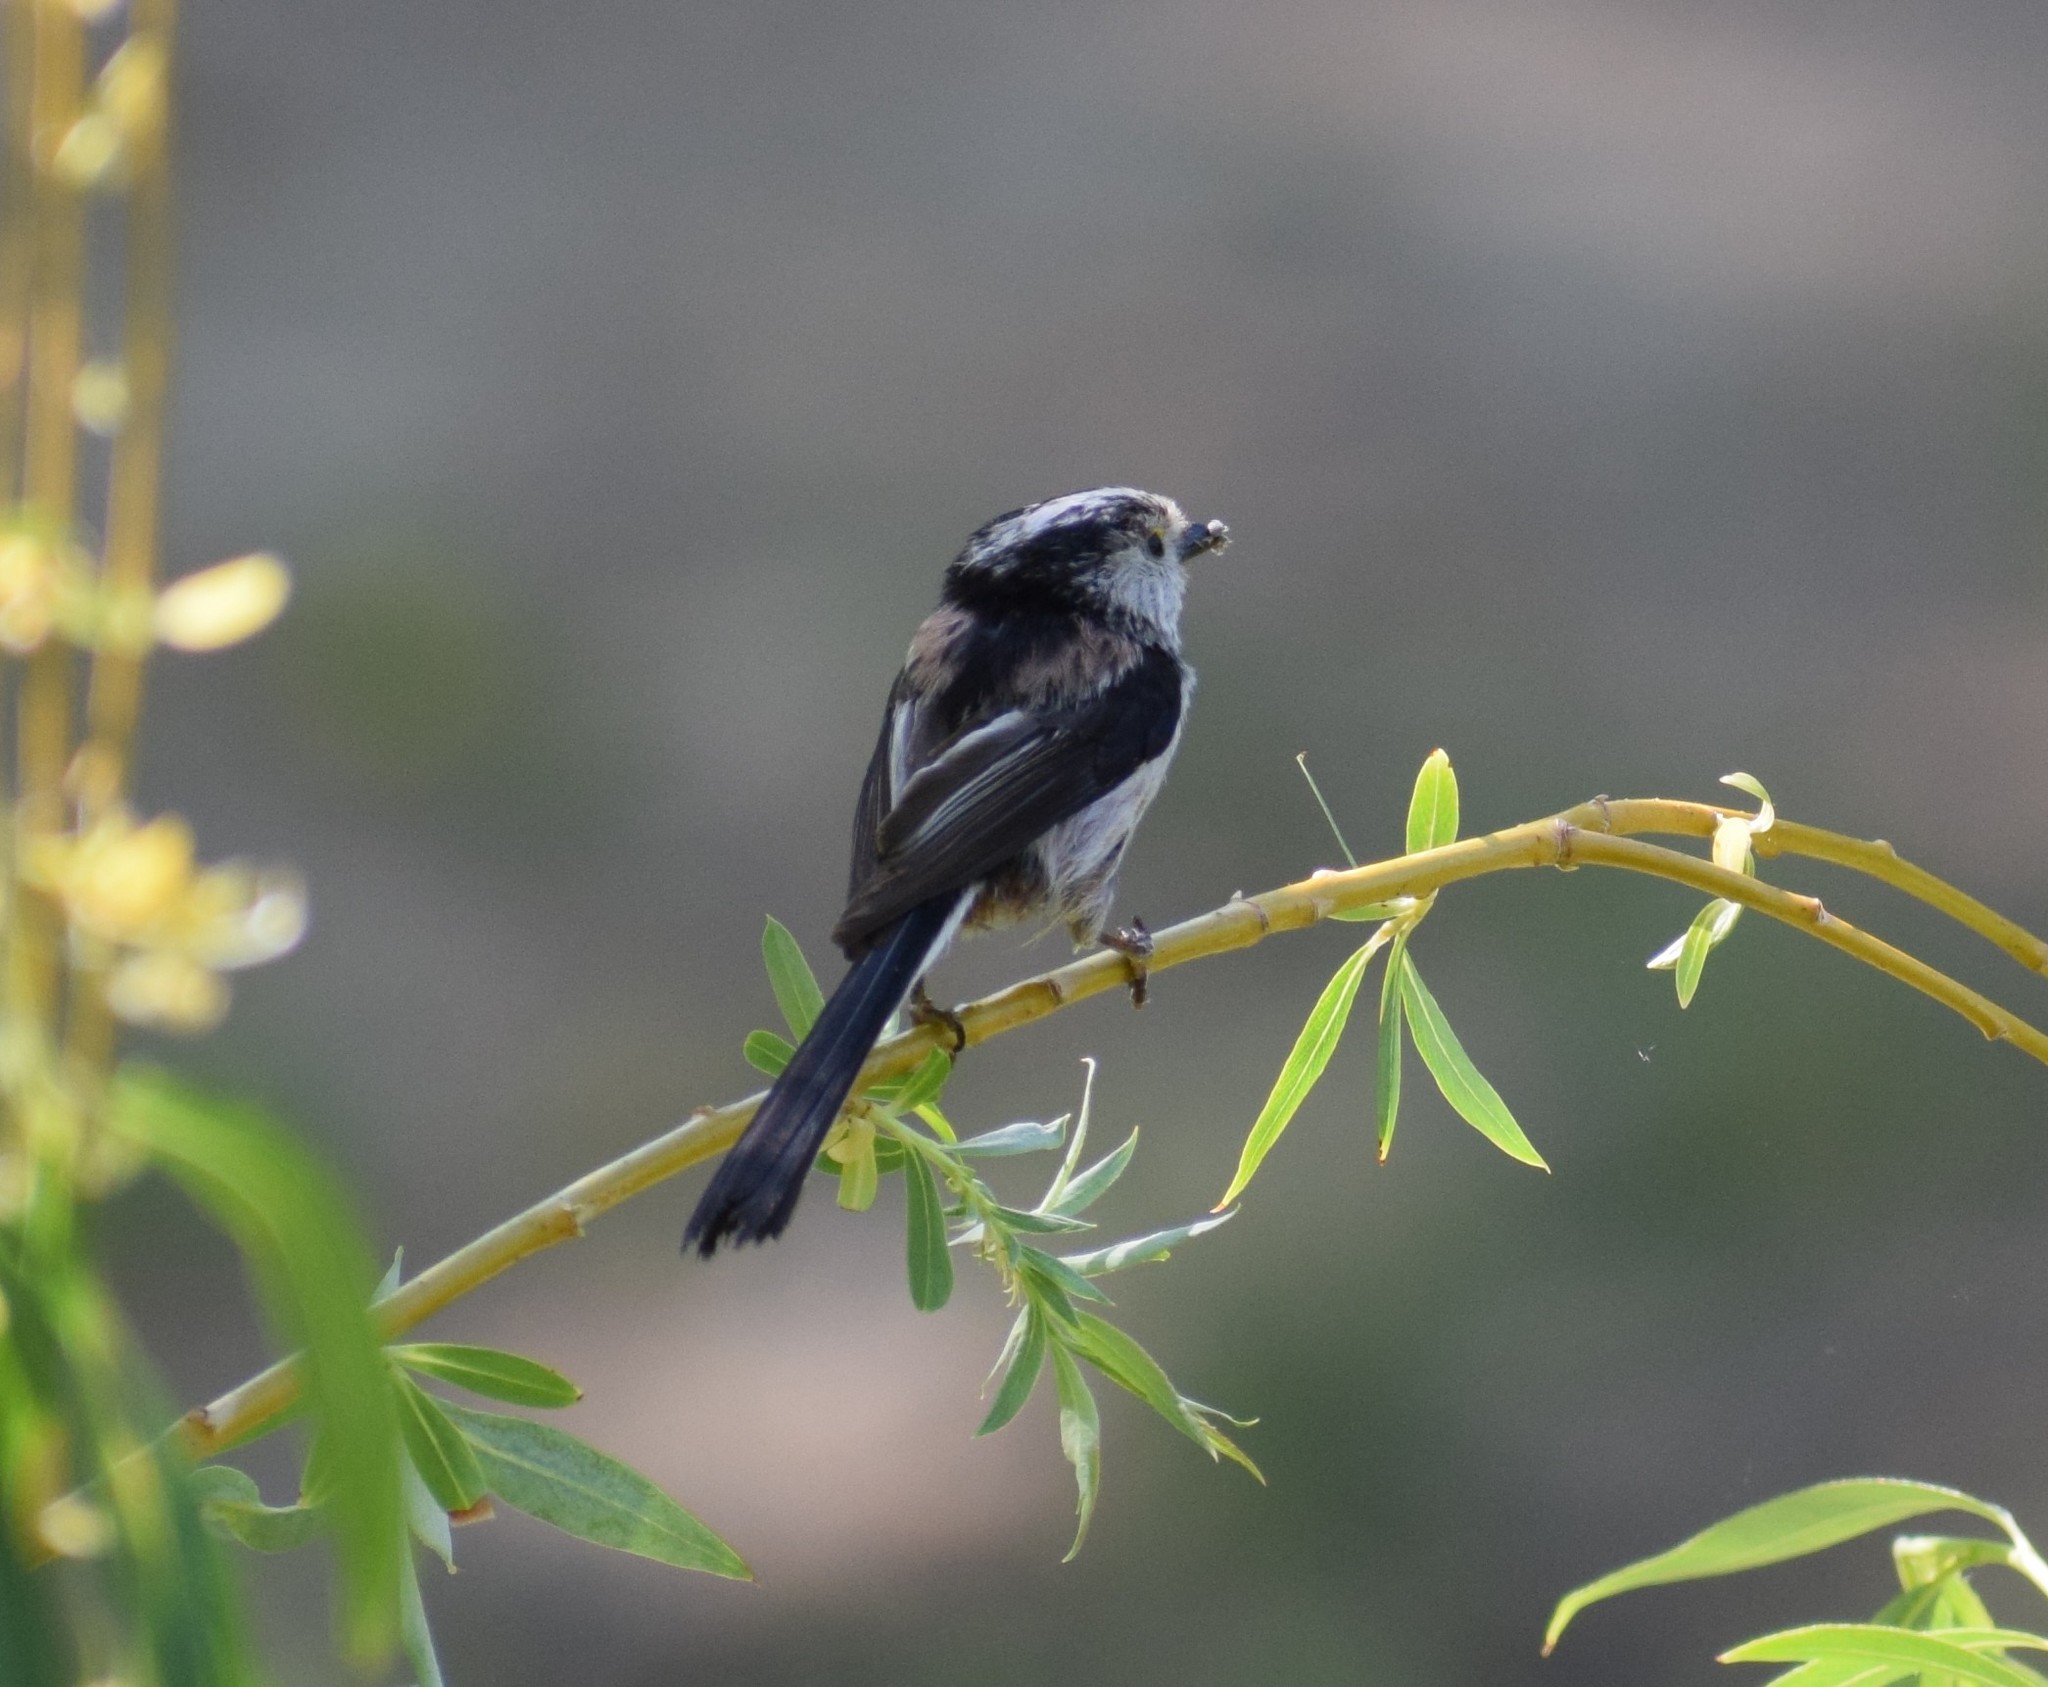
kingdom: Animalia
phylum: Chordata
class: Aves
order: Passeriformes
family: Aegithalidae
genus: Aegithalos
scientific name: Aegithalos caudatus
